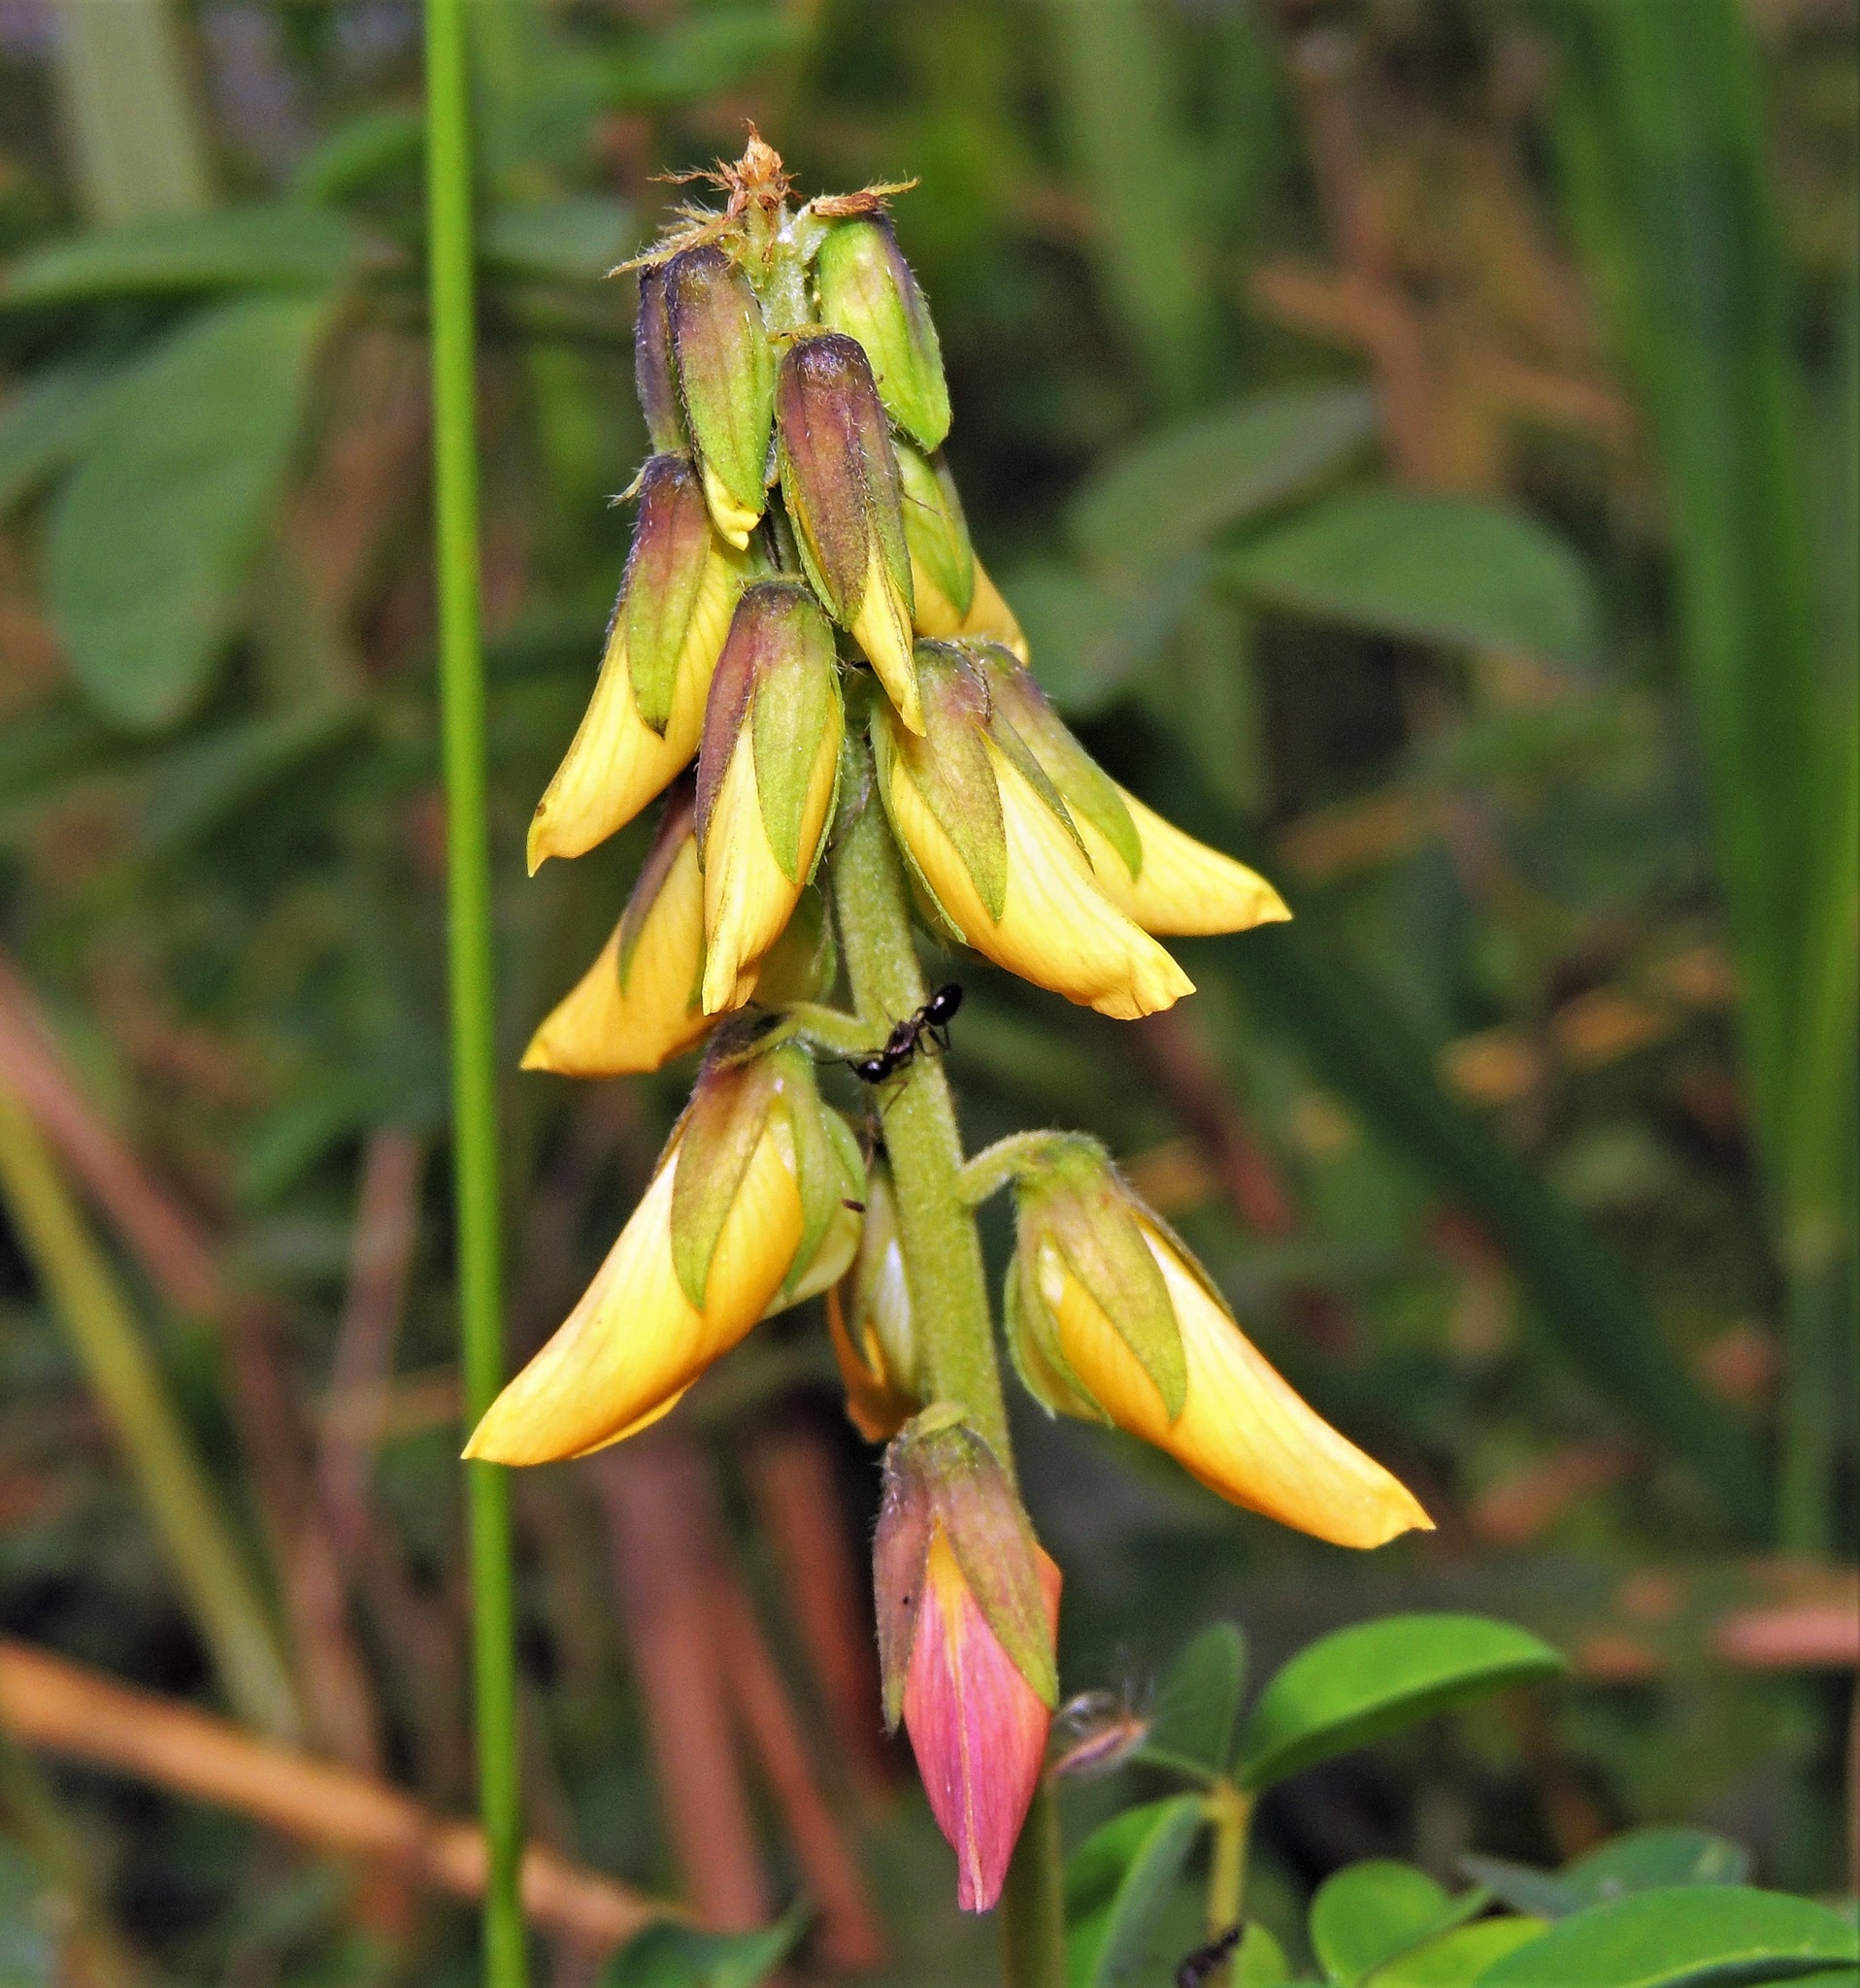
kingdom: Plantae
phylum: Tracheophyta
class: Magnoliopsida
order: Fabales
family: Fabaceae
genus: Crotalaria
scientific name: Crotalaria incana
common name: Shakeshake
